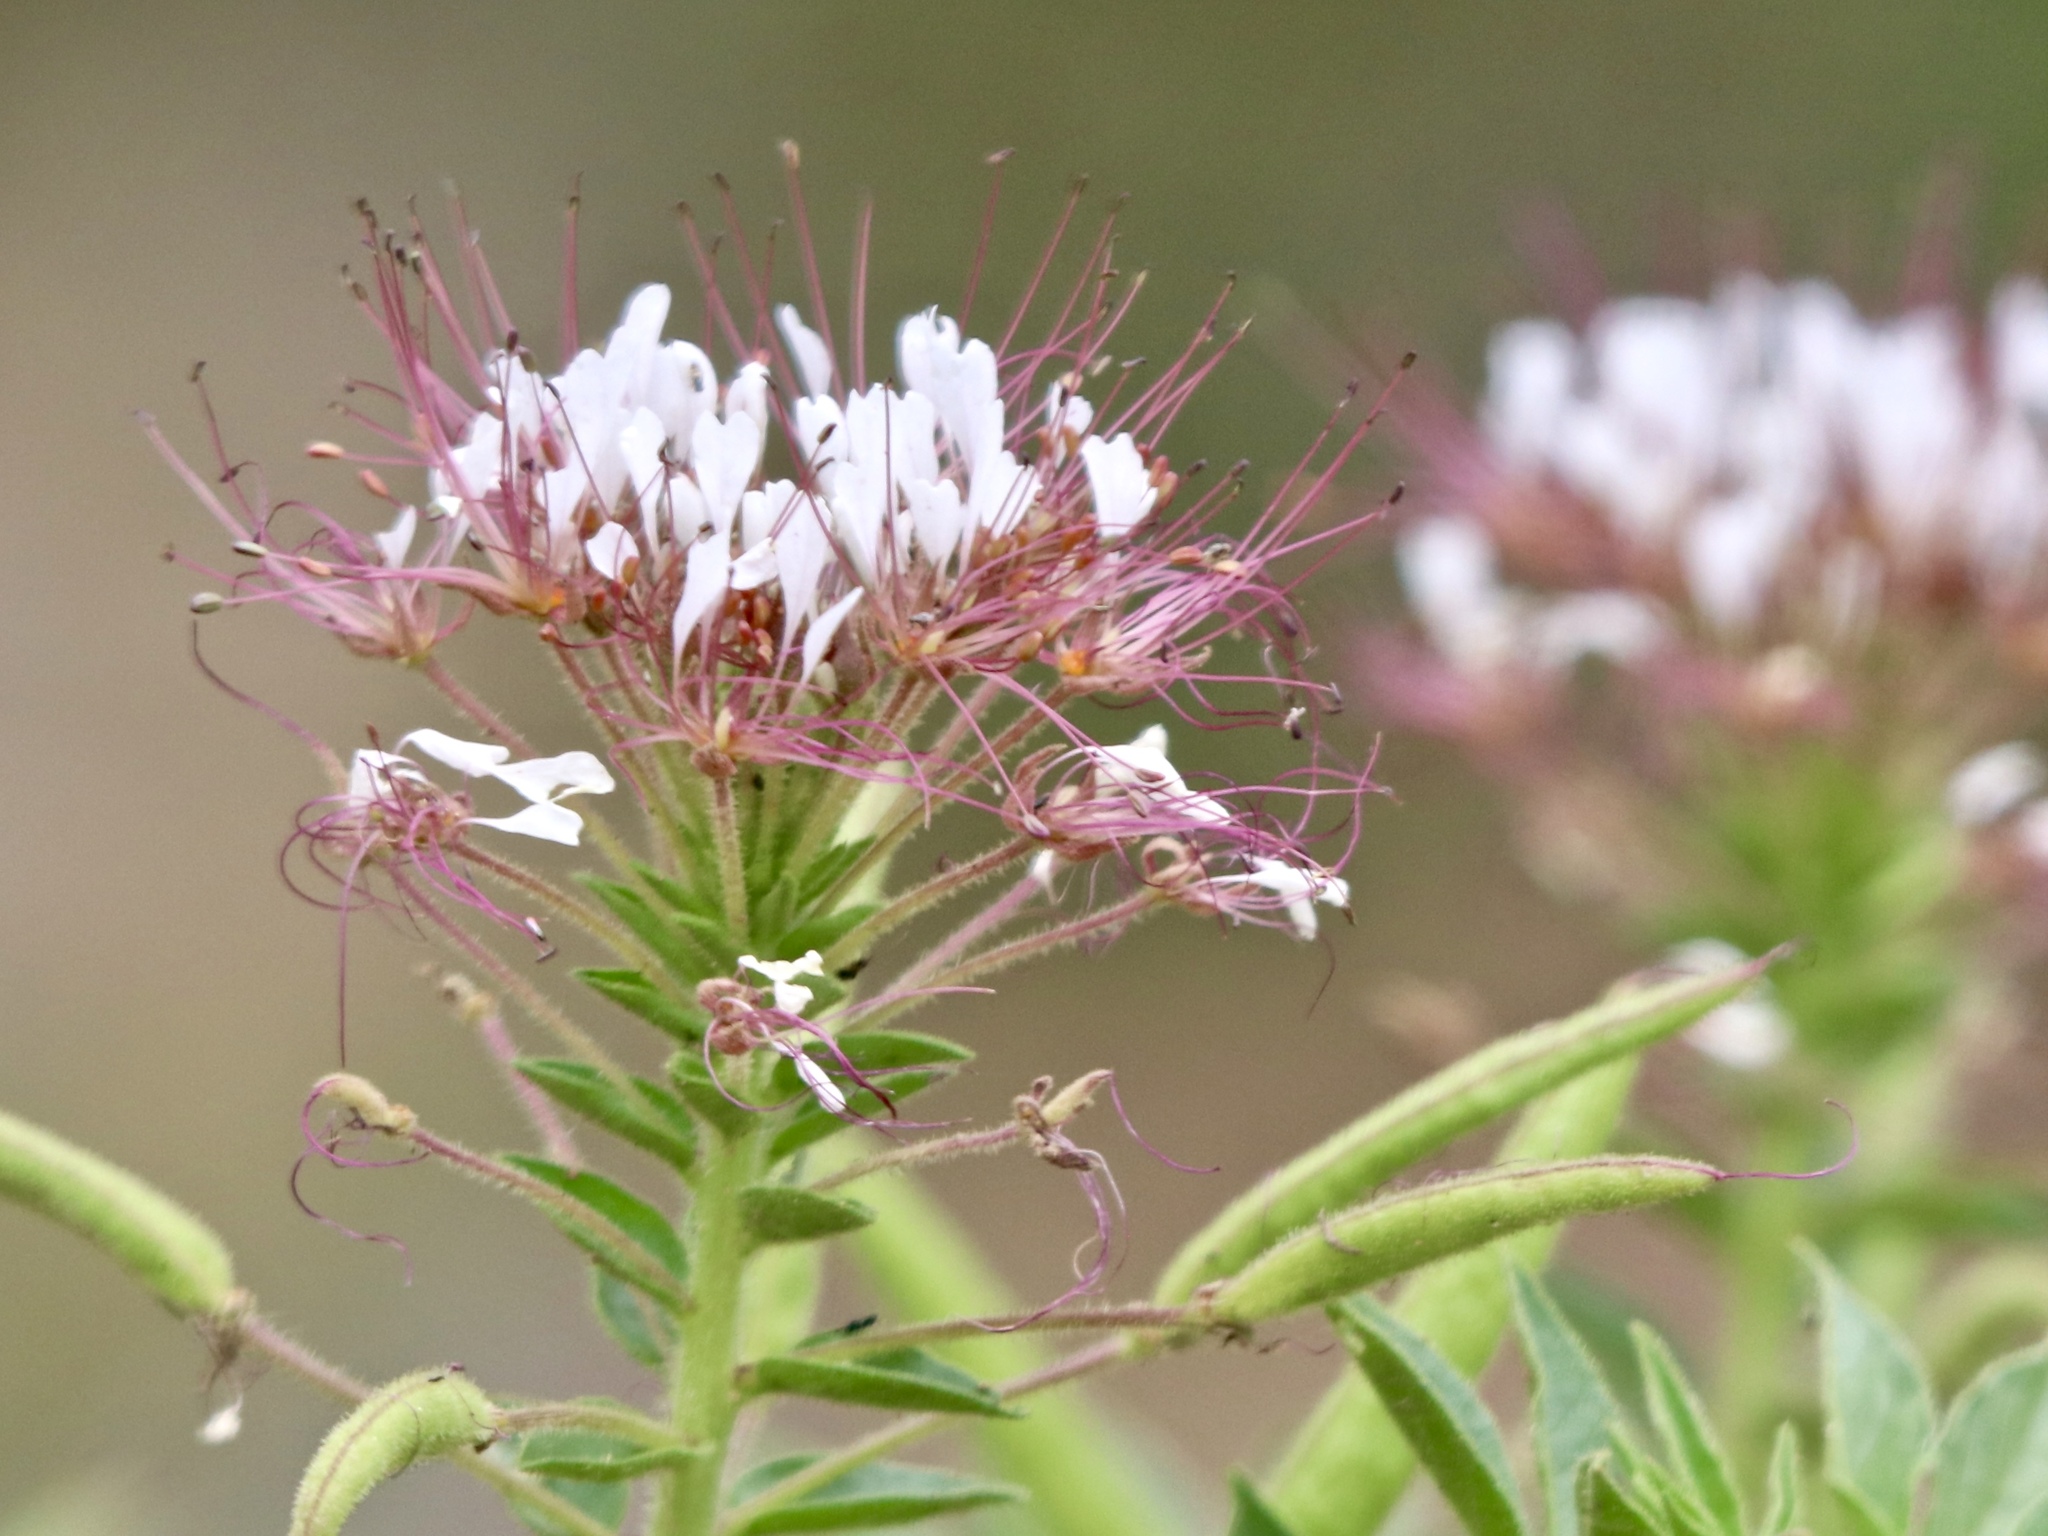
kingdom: Plantae
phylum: Tracheophyta
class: Magnoliopsida
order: Brassicales
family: Cleomaceae
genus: Polanisia
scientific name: Polanisia dodecandra
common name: Clammyweed
